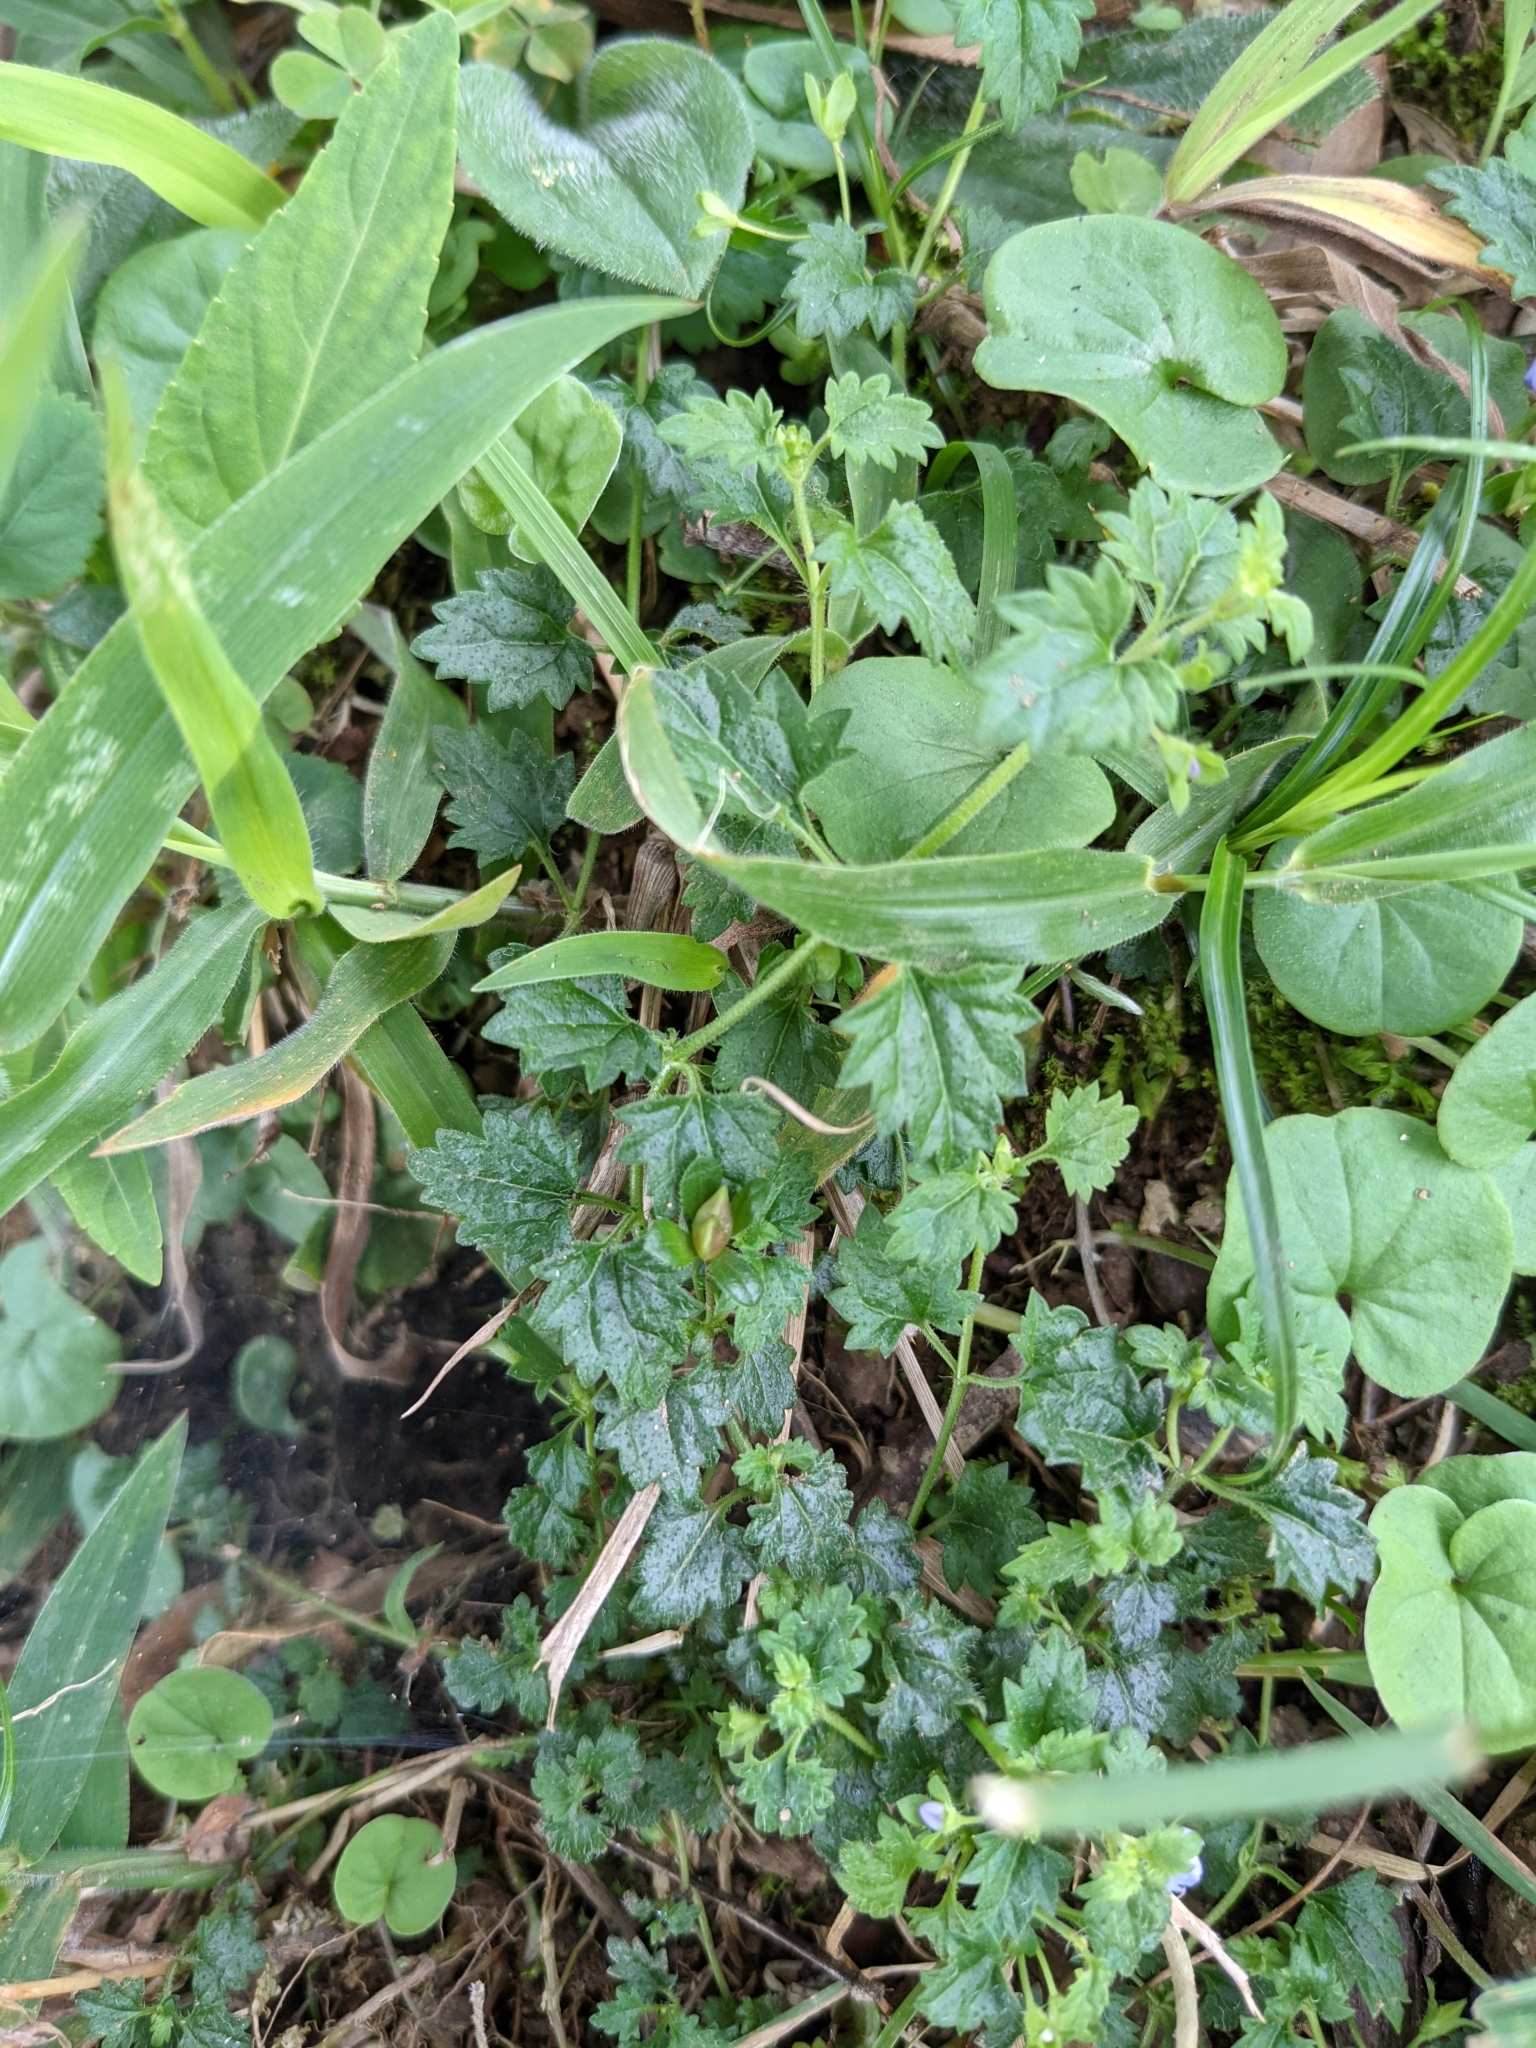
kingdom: Plantae
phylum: Tracheophyta
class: Magnoliopsida
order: Lamiales
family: Plantaginaceae
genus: Veronica
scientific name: Veronica plebeia
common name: Speedwell
